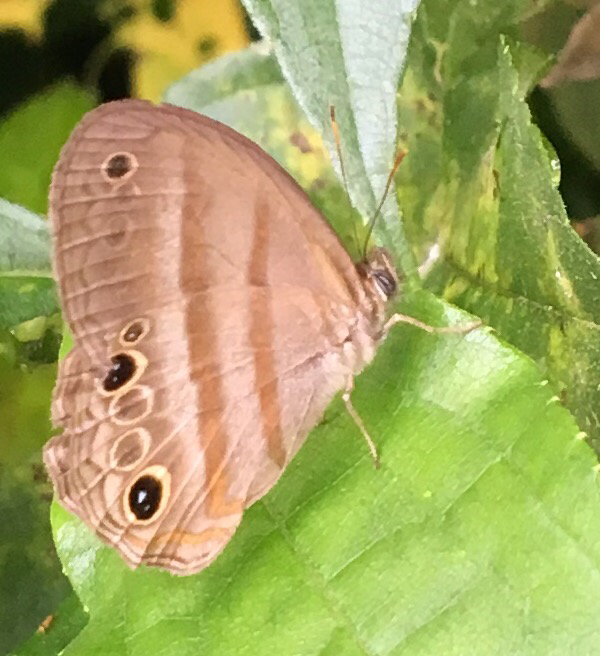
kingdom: Animalia
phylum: Arthropoda
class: Insecta
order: Lepidoptera
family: Nymphalidae
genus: Modica
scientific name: Modica
